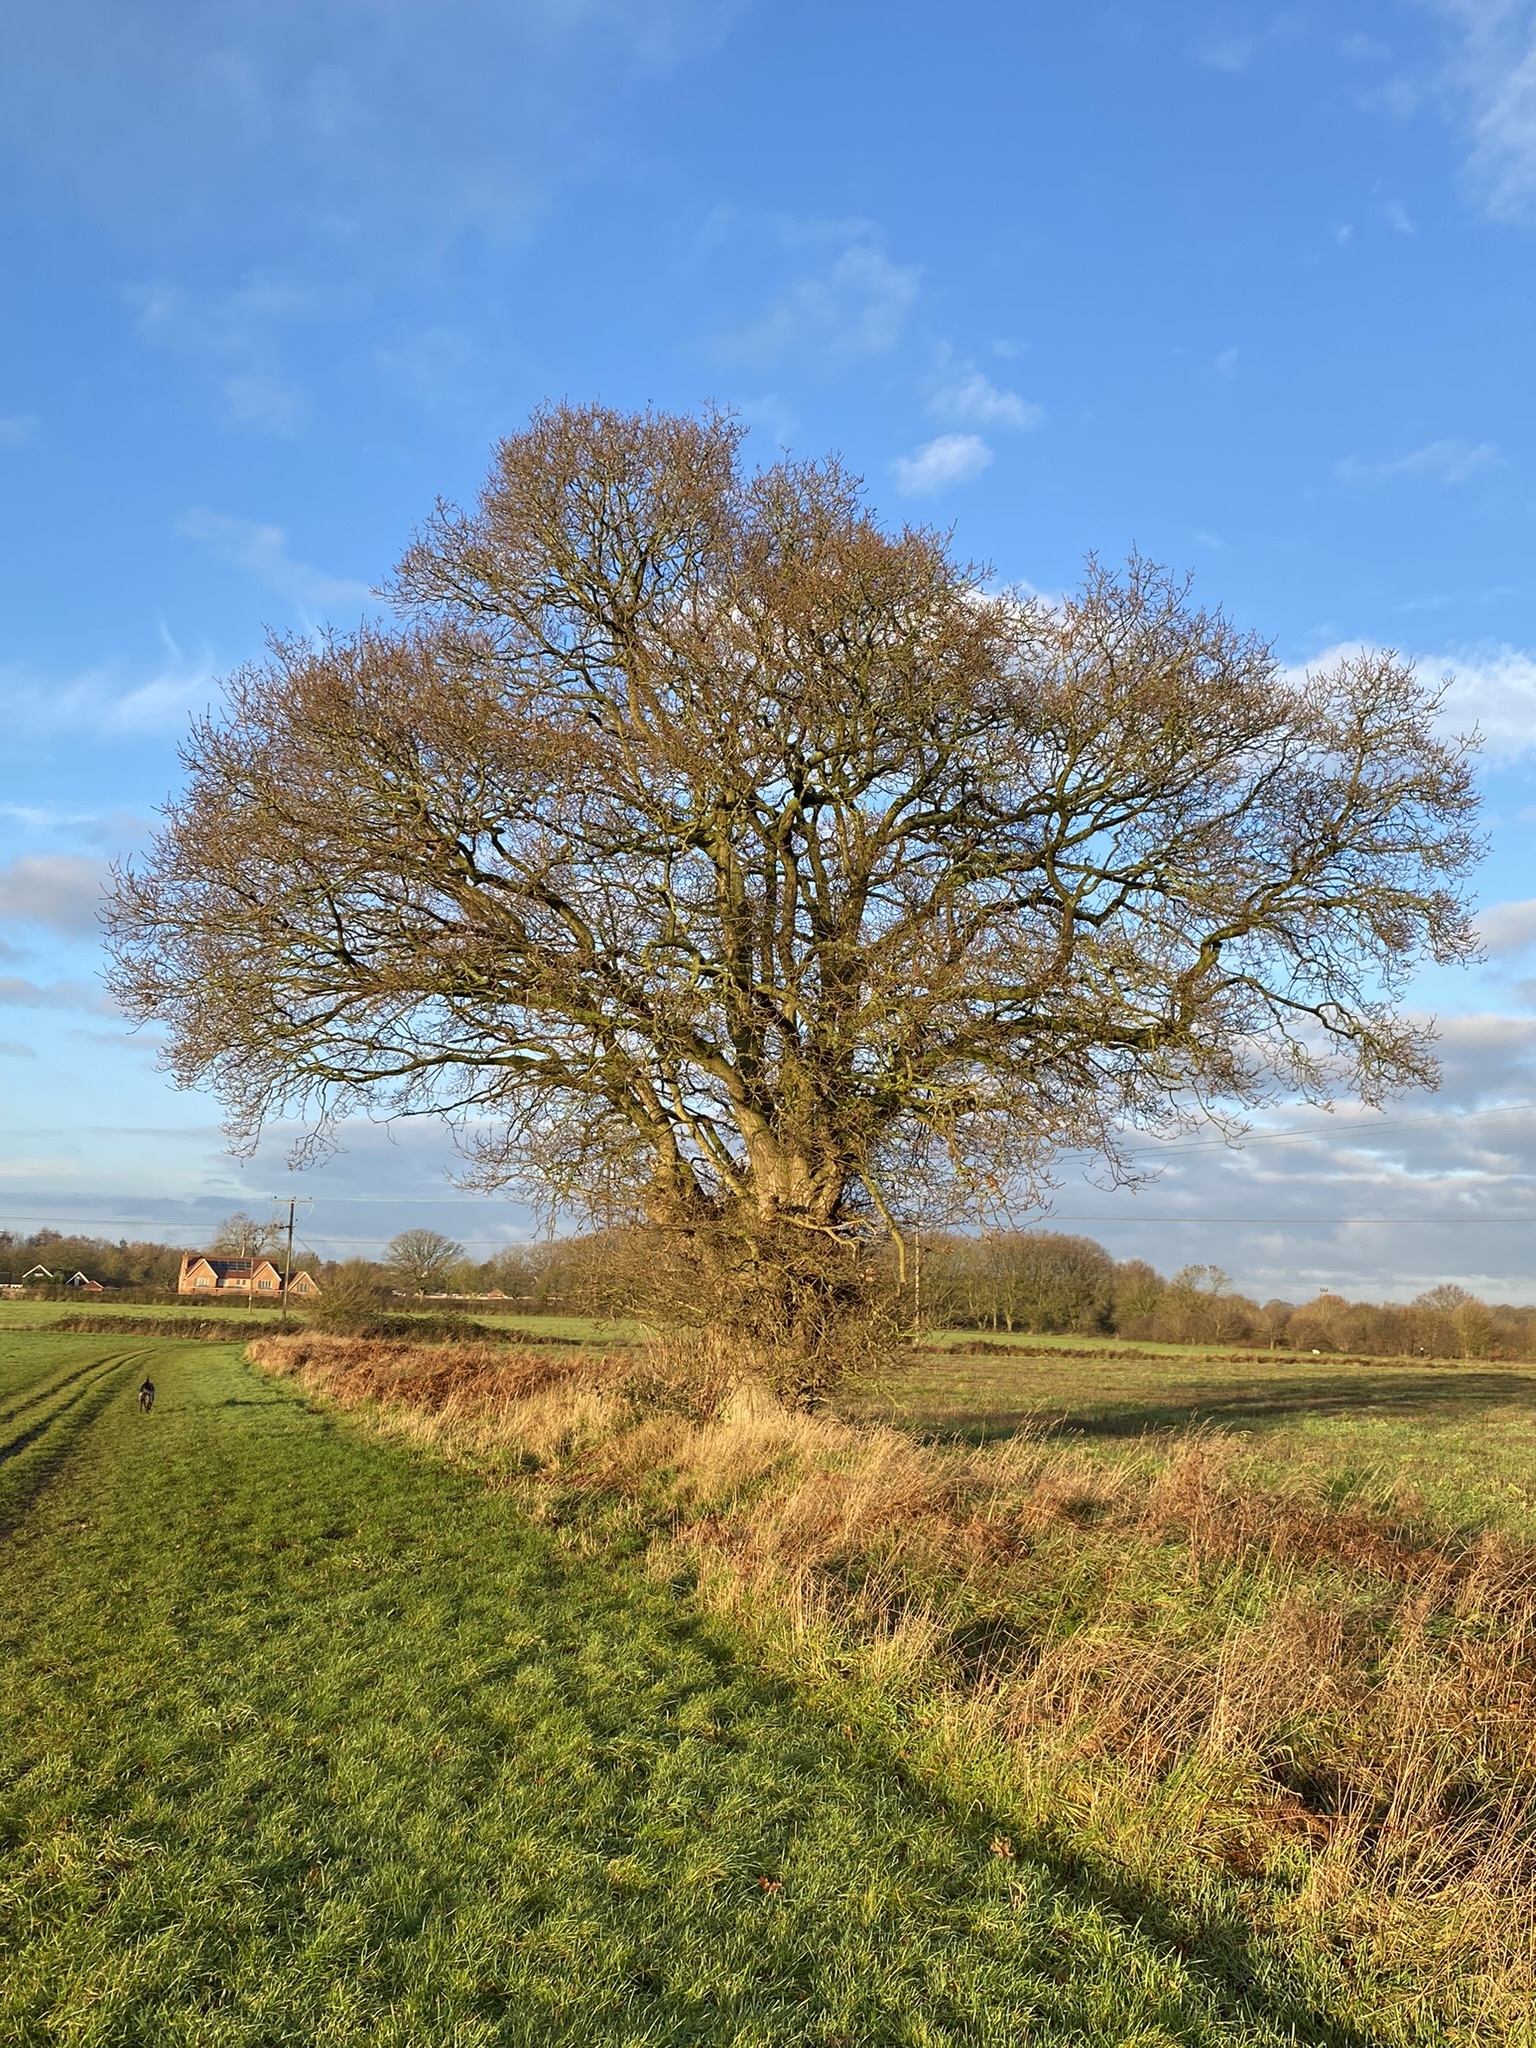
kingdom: Plantae
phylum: Tracheophyta
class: Magnoliopsida
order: Fagales
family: Fagaceae
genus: Quercus
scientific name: Quercus robur
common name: Pedunculate oak
